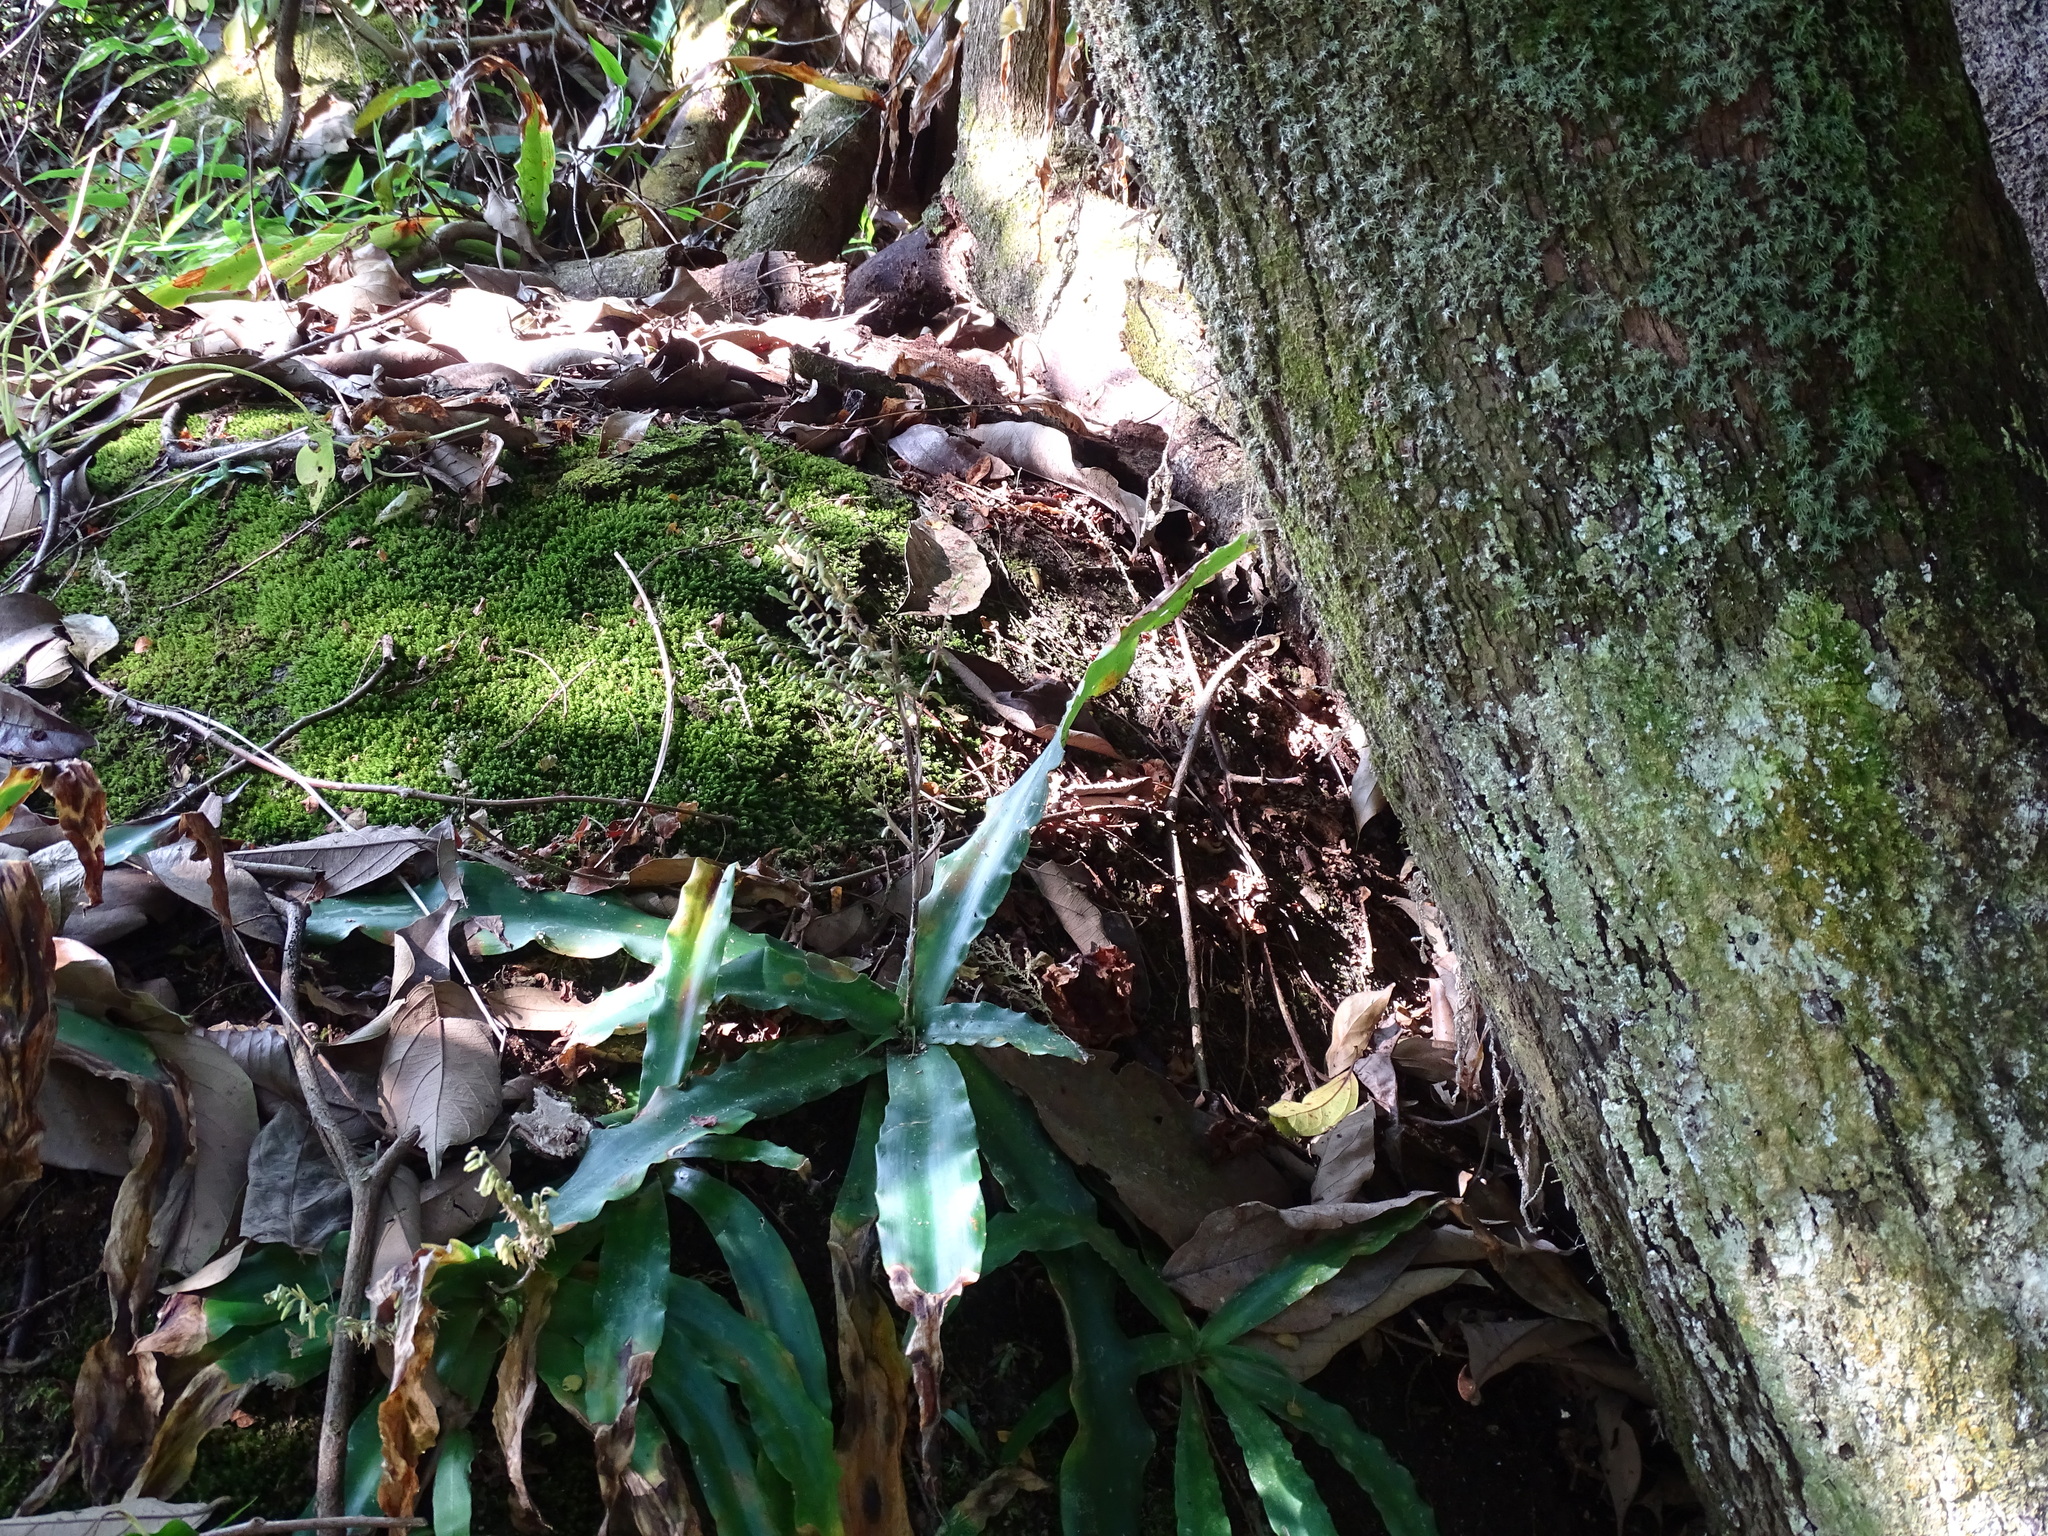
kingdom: Plantae
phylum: Tracheophyta
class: Liliopsida
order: Poales
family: Bromeliaceae
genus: Fosterella
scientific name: Fosterella micrantha
